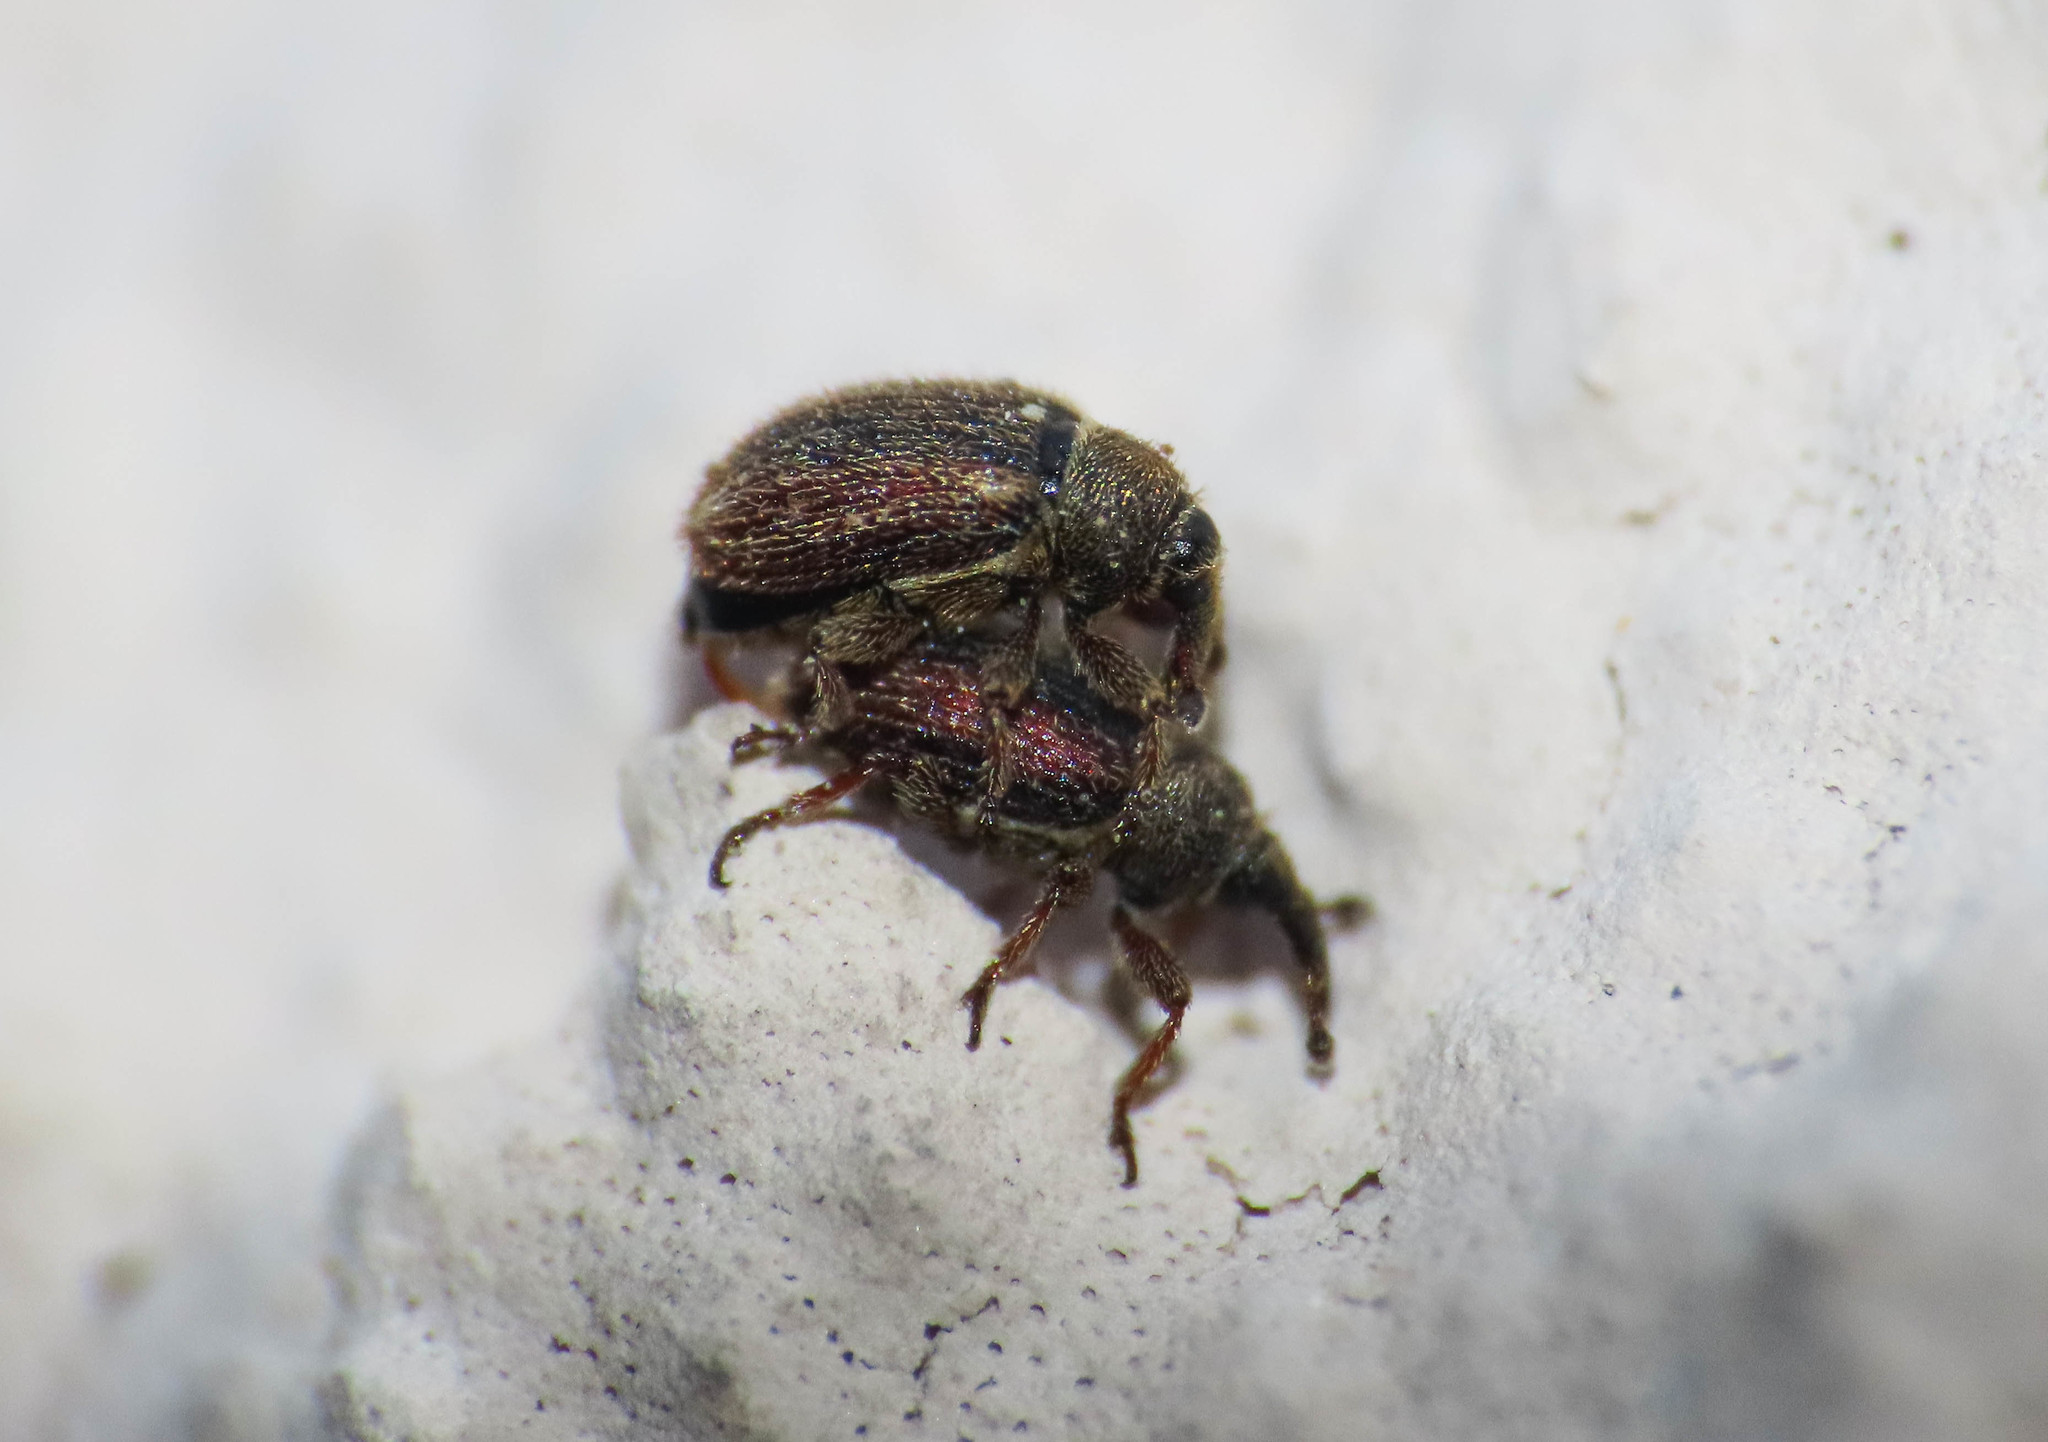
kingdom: Animalia
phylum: Arthropoda
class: Insecta
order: Coleoptera
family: Curculionidae
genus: Gymnetron
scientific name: Gymnetron rotundicolle
